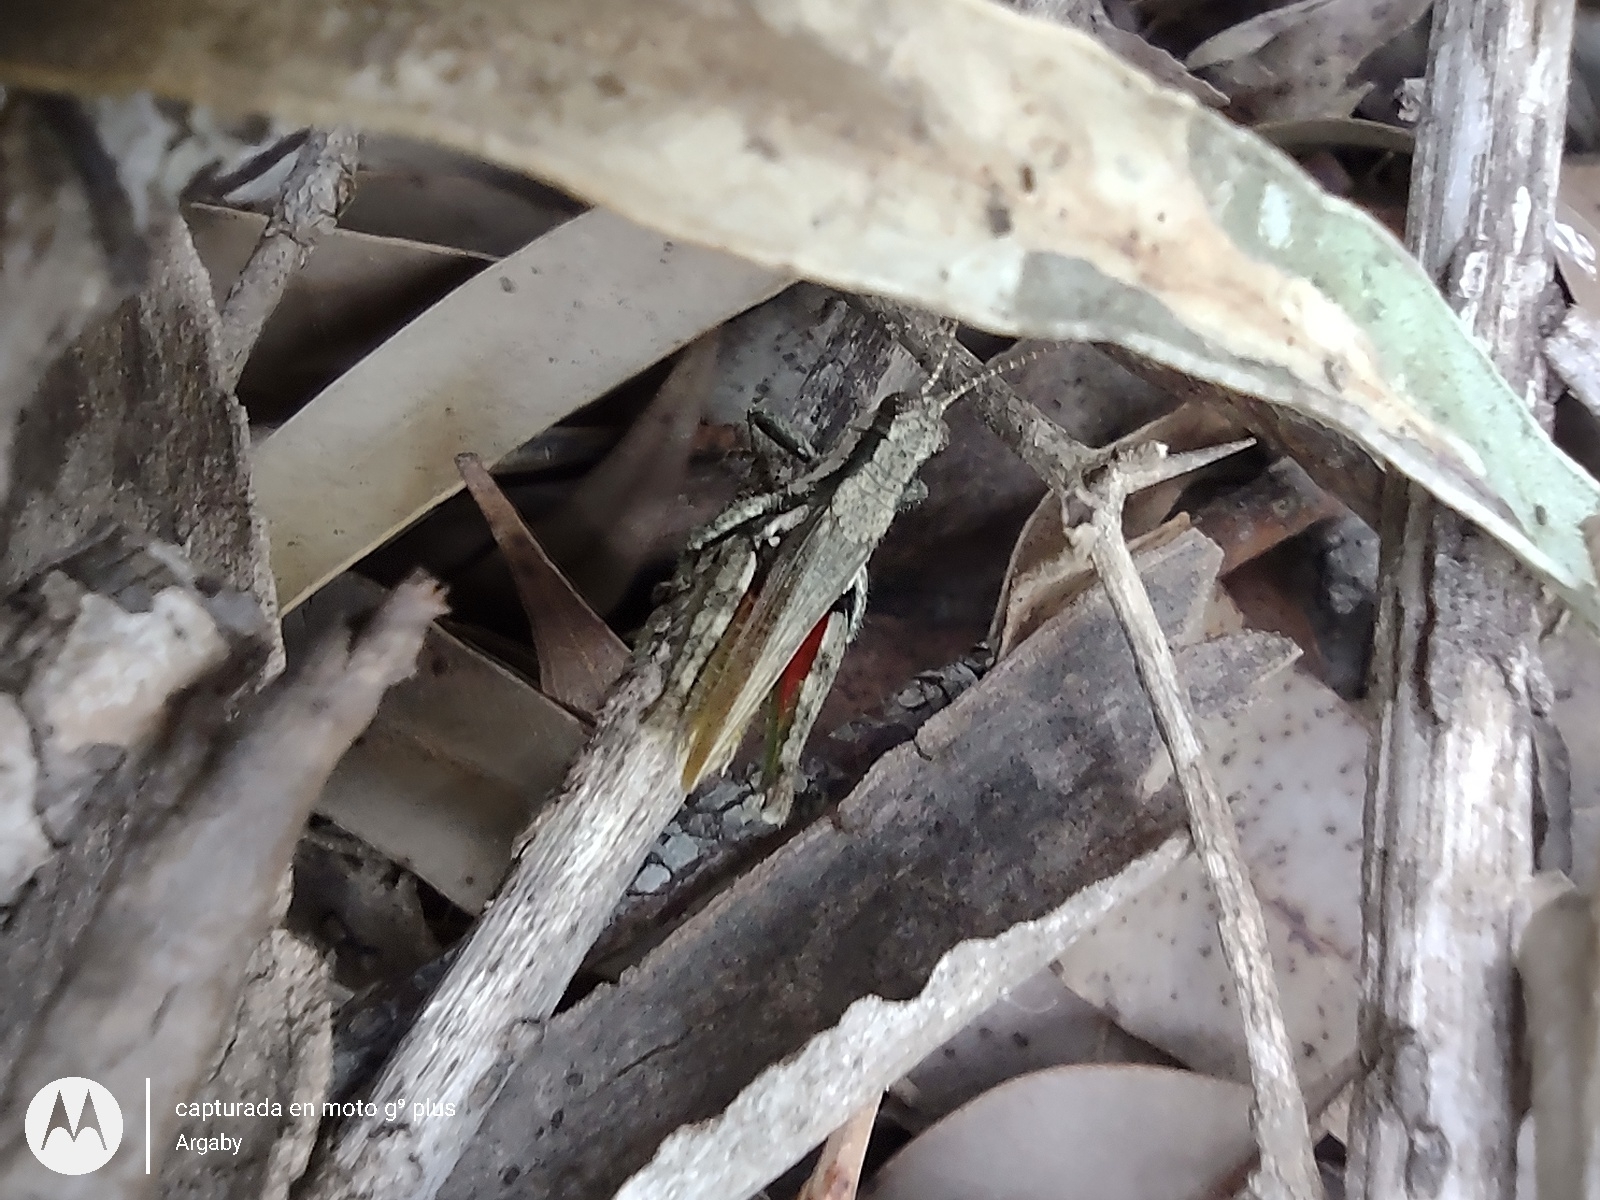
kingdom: Animalia
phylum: Arthropoda
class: Insecta
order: Orthoptera
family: Acrididae
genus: Ronderosia
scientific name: Ronderosia bergii
